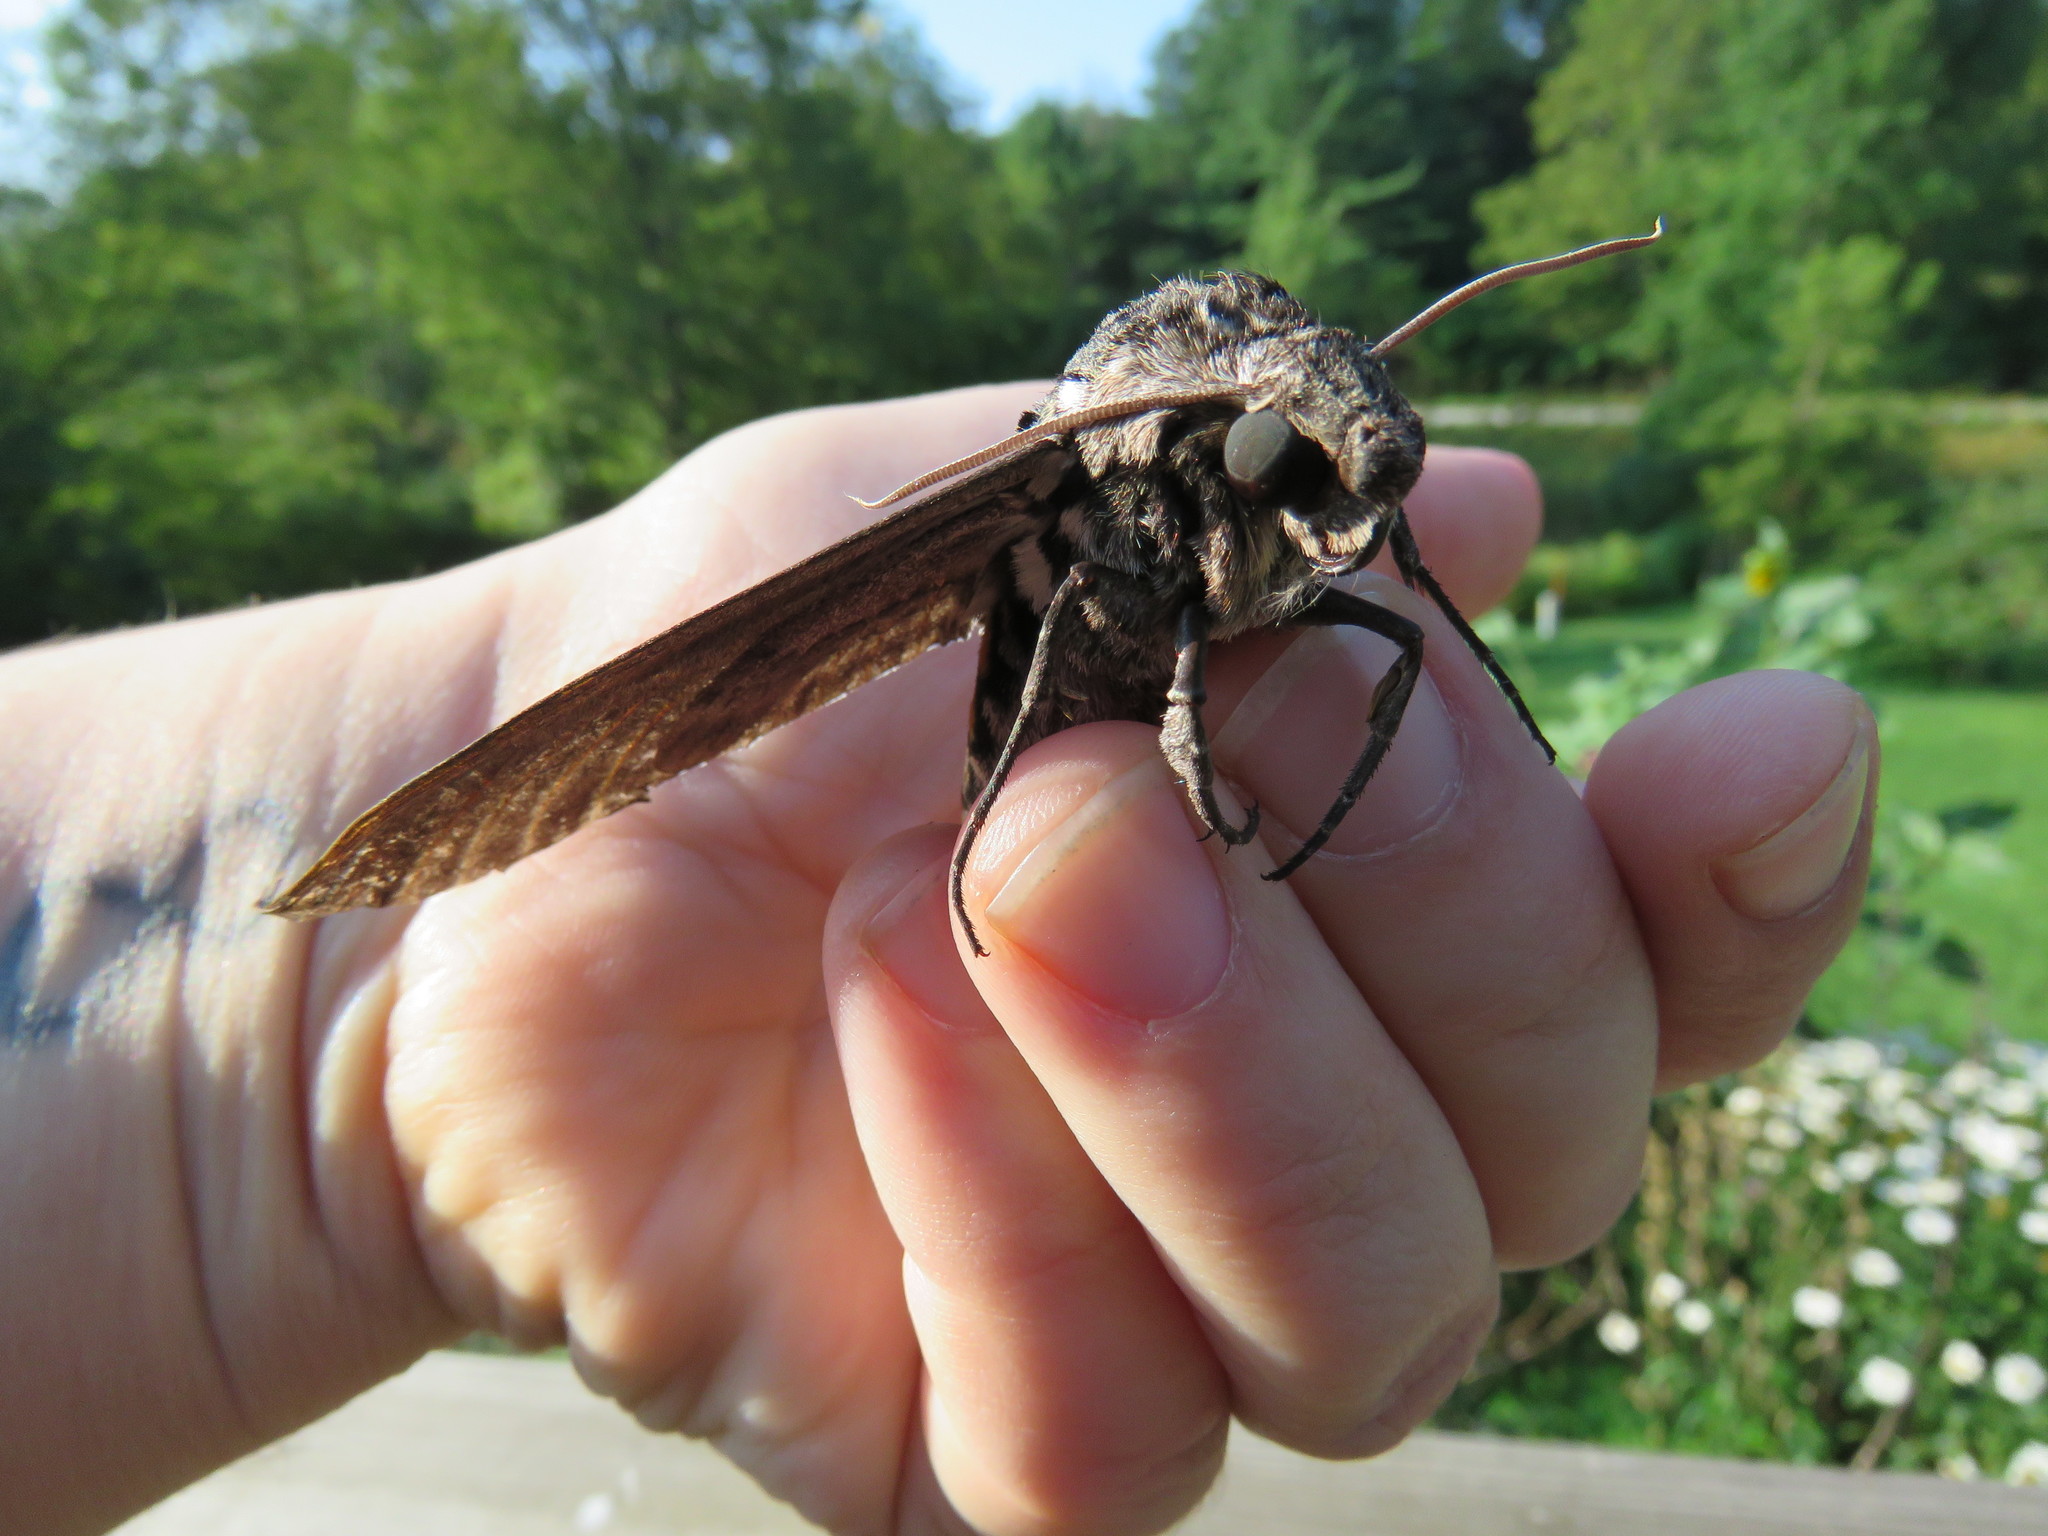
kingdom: Animalia
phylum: Arthropoda
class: Insecta
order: Lepidoptera
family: Sphingidae
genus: Manduca
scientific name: Manduca sexta
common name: Carolina sphinx
